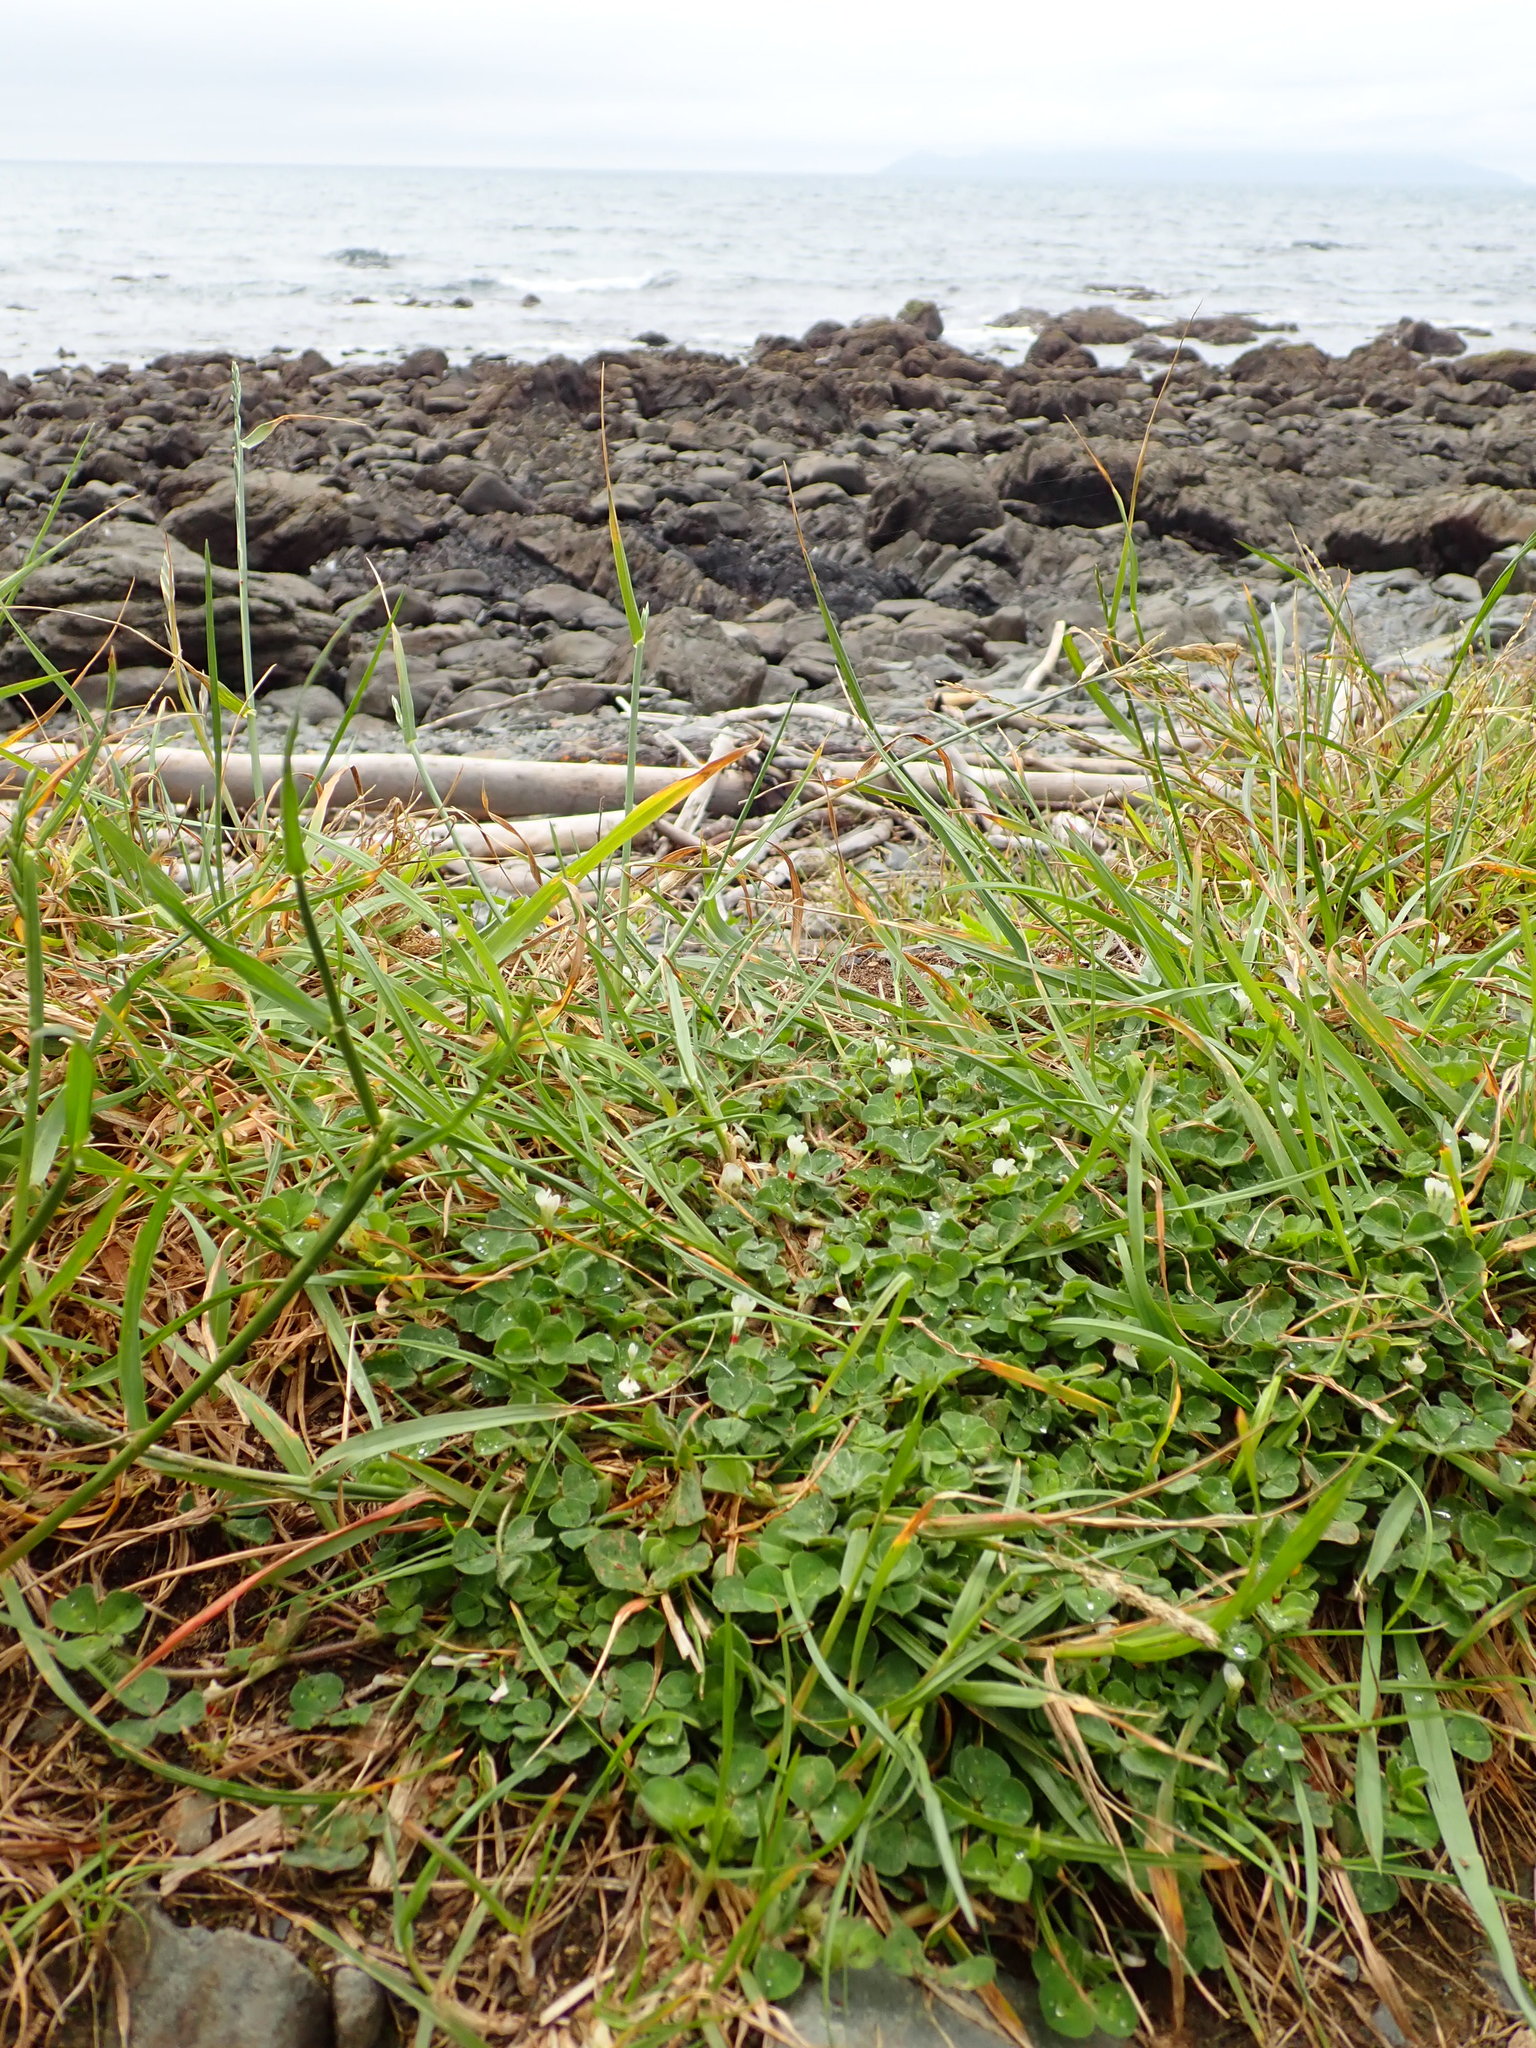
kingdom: Plantae
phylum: Tracheophyta
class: Magnoliopsida
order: Fabales
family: Fabaceae
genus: Trifolium
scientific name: Trifolium subterraneum
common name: Subterranean clover
